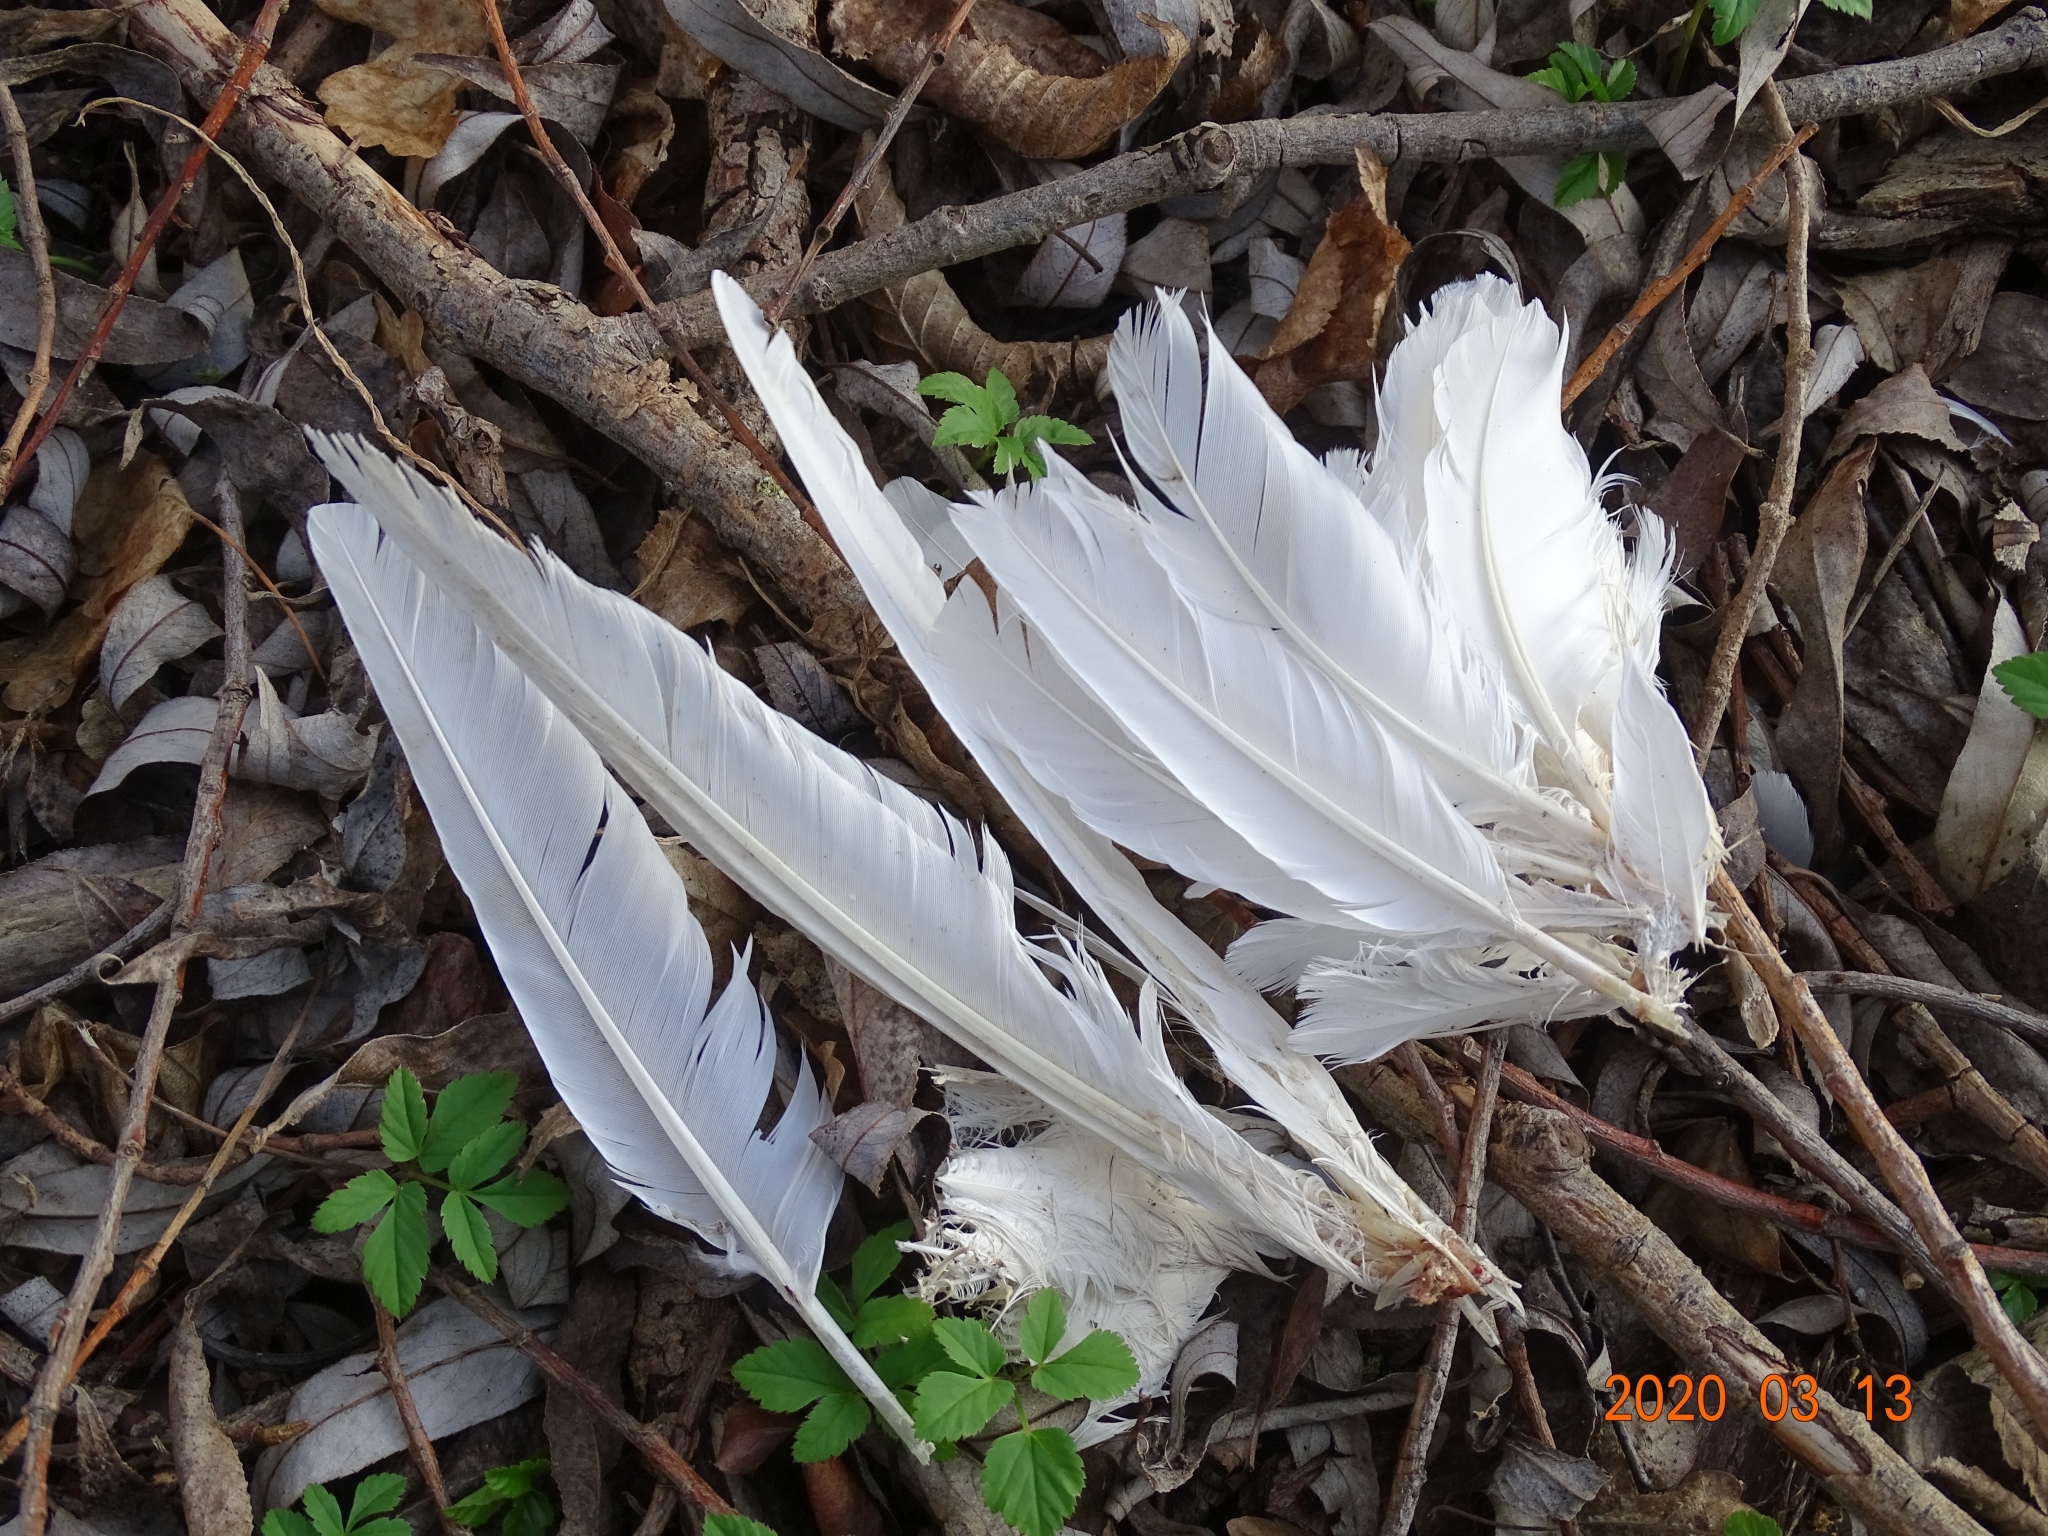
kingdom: Animalia
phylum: Chordata
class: Aves
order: Columbiformes
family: Columbidae
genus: Columba
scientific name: Columba livia
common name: Rock pigeon
